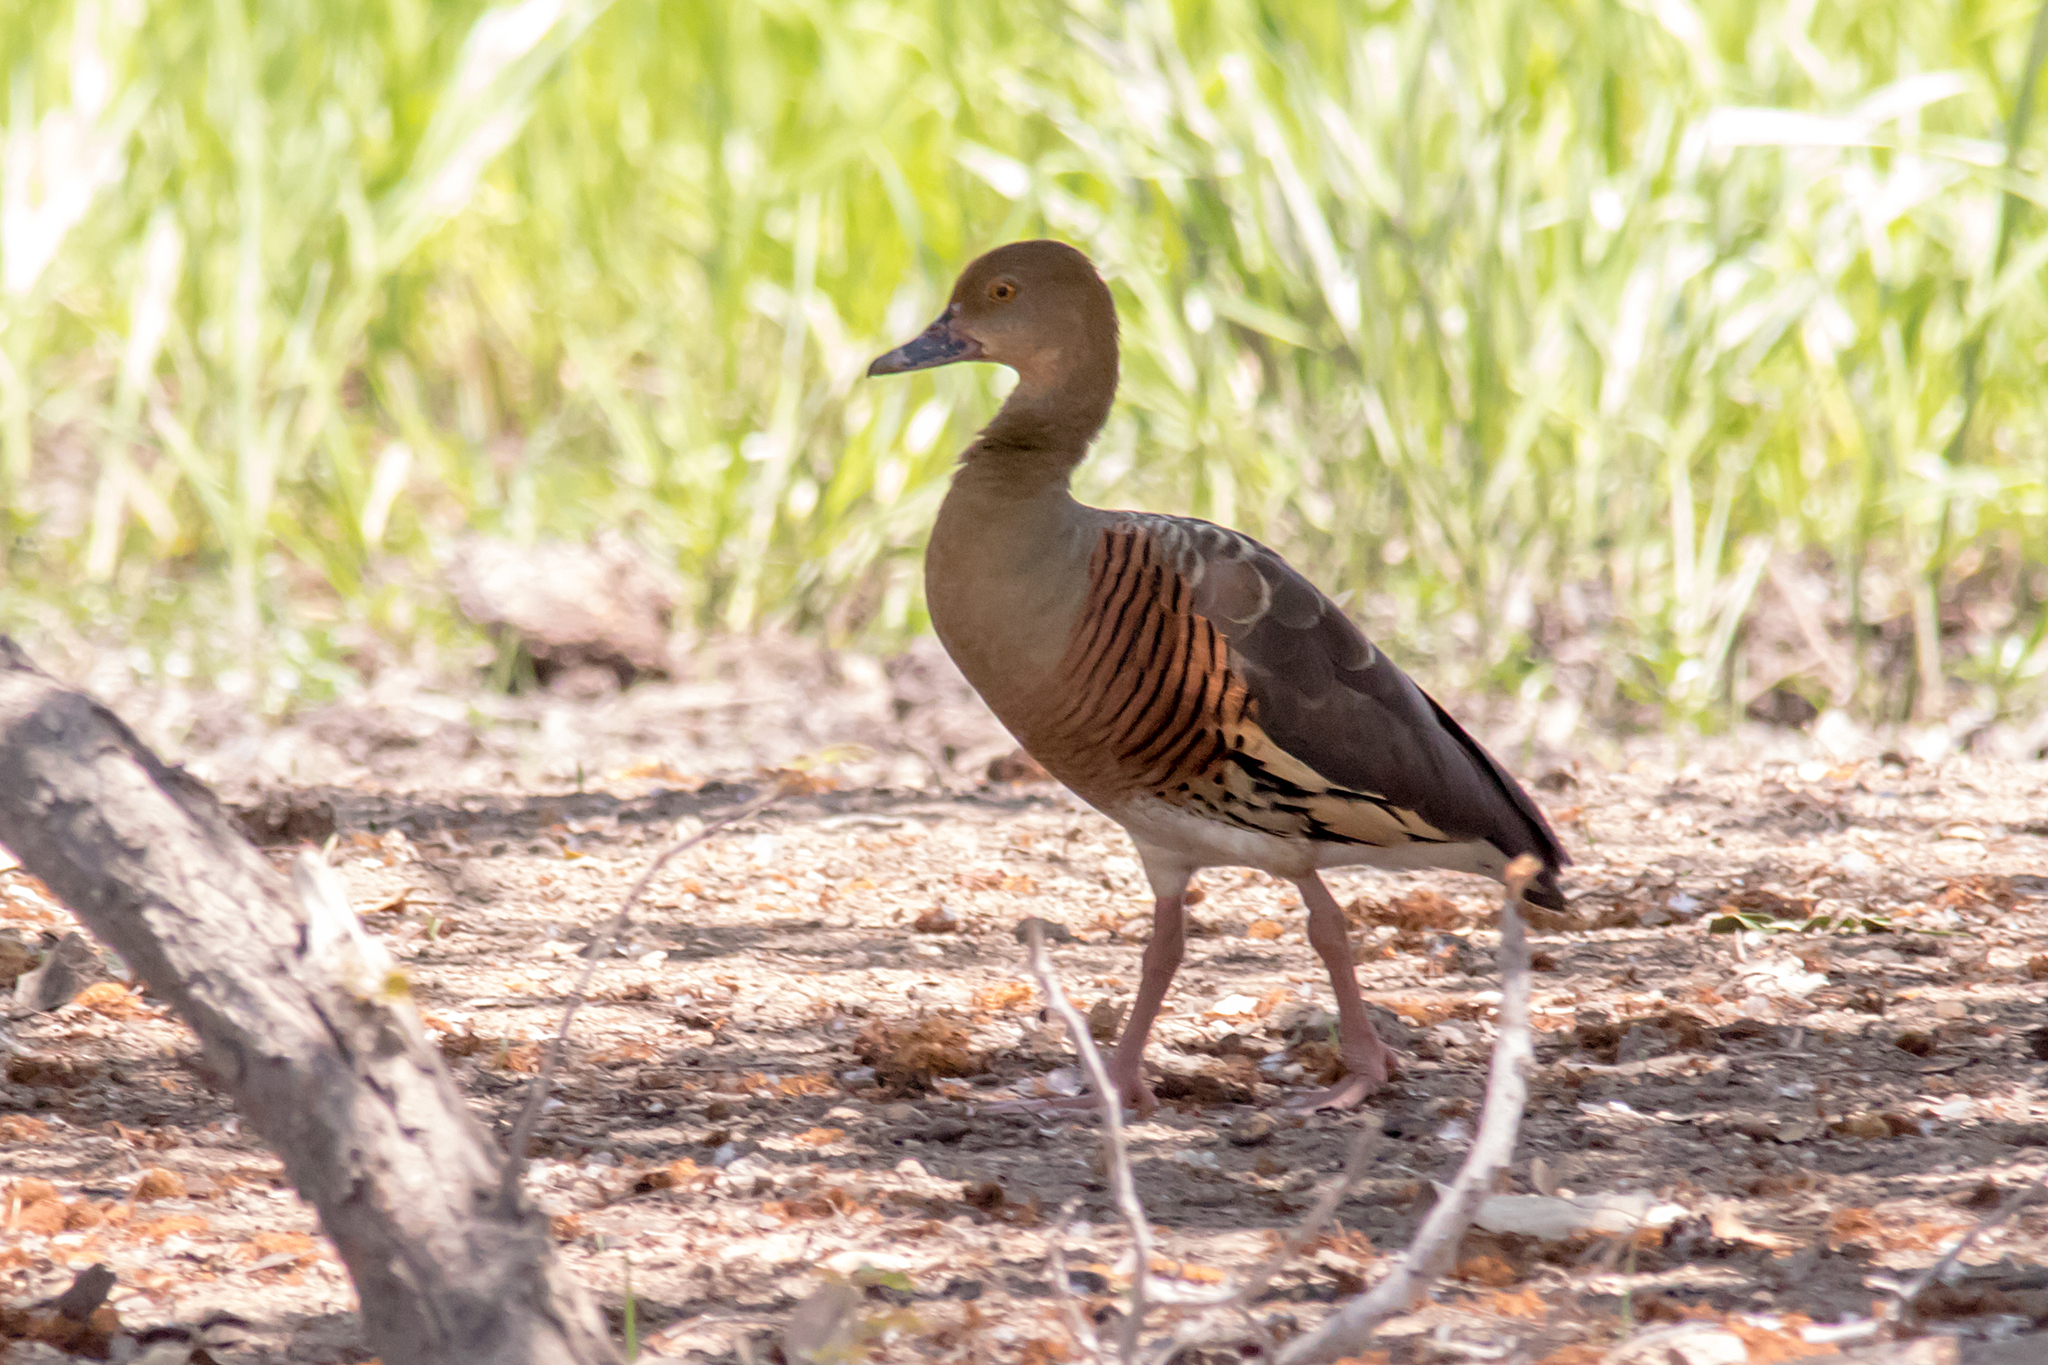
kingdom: Animalia
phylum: Chordata
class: Aves
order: Anseriformes
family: Anatidae
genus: Dendrocygna
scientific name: Dendrocygna eytoni
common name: Plumed whistling-duck
